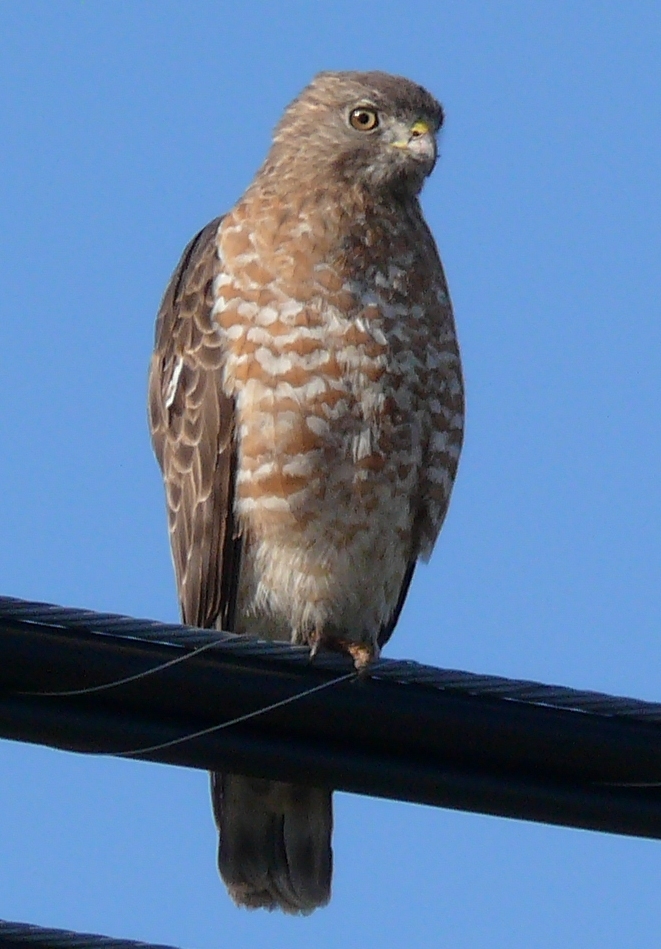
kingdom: Animalia
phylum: Chordata
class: Aves
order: Accipitriformes
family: Accipitridae
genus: Buteo
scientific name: Buteo platypterus
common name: Broad-winged hawk
